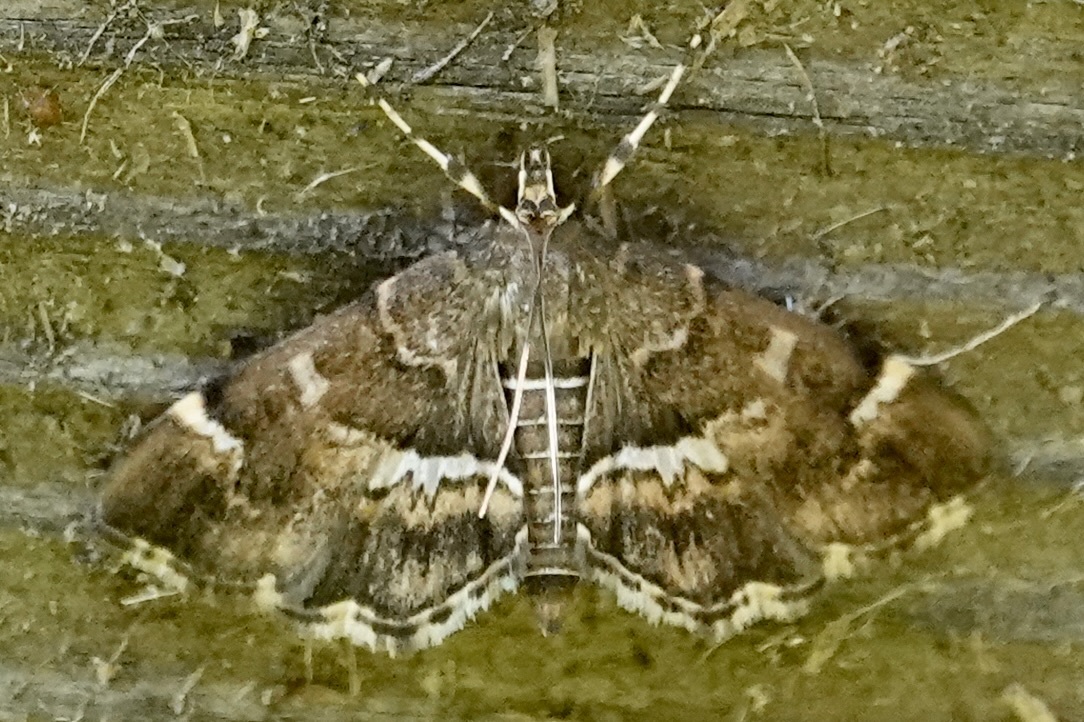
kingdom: Animalia
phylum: Arthropoda
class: Insecta
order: Lepidoptera
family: Crambidae
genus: Hymenia
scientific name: Hymenia perspectalis
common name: Spotted beet webworm
